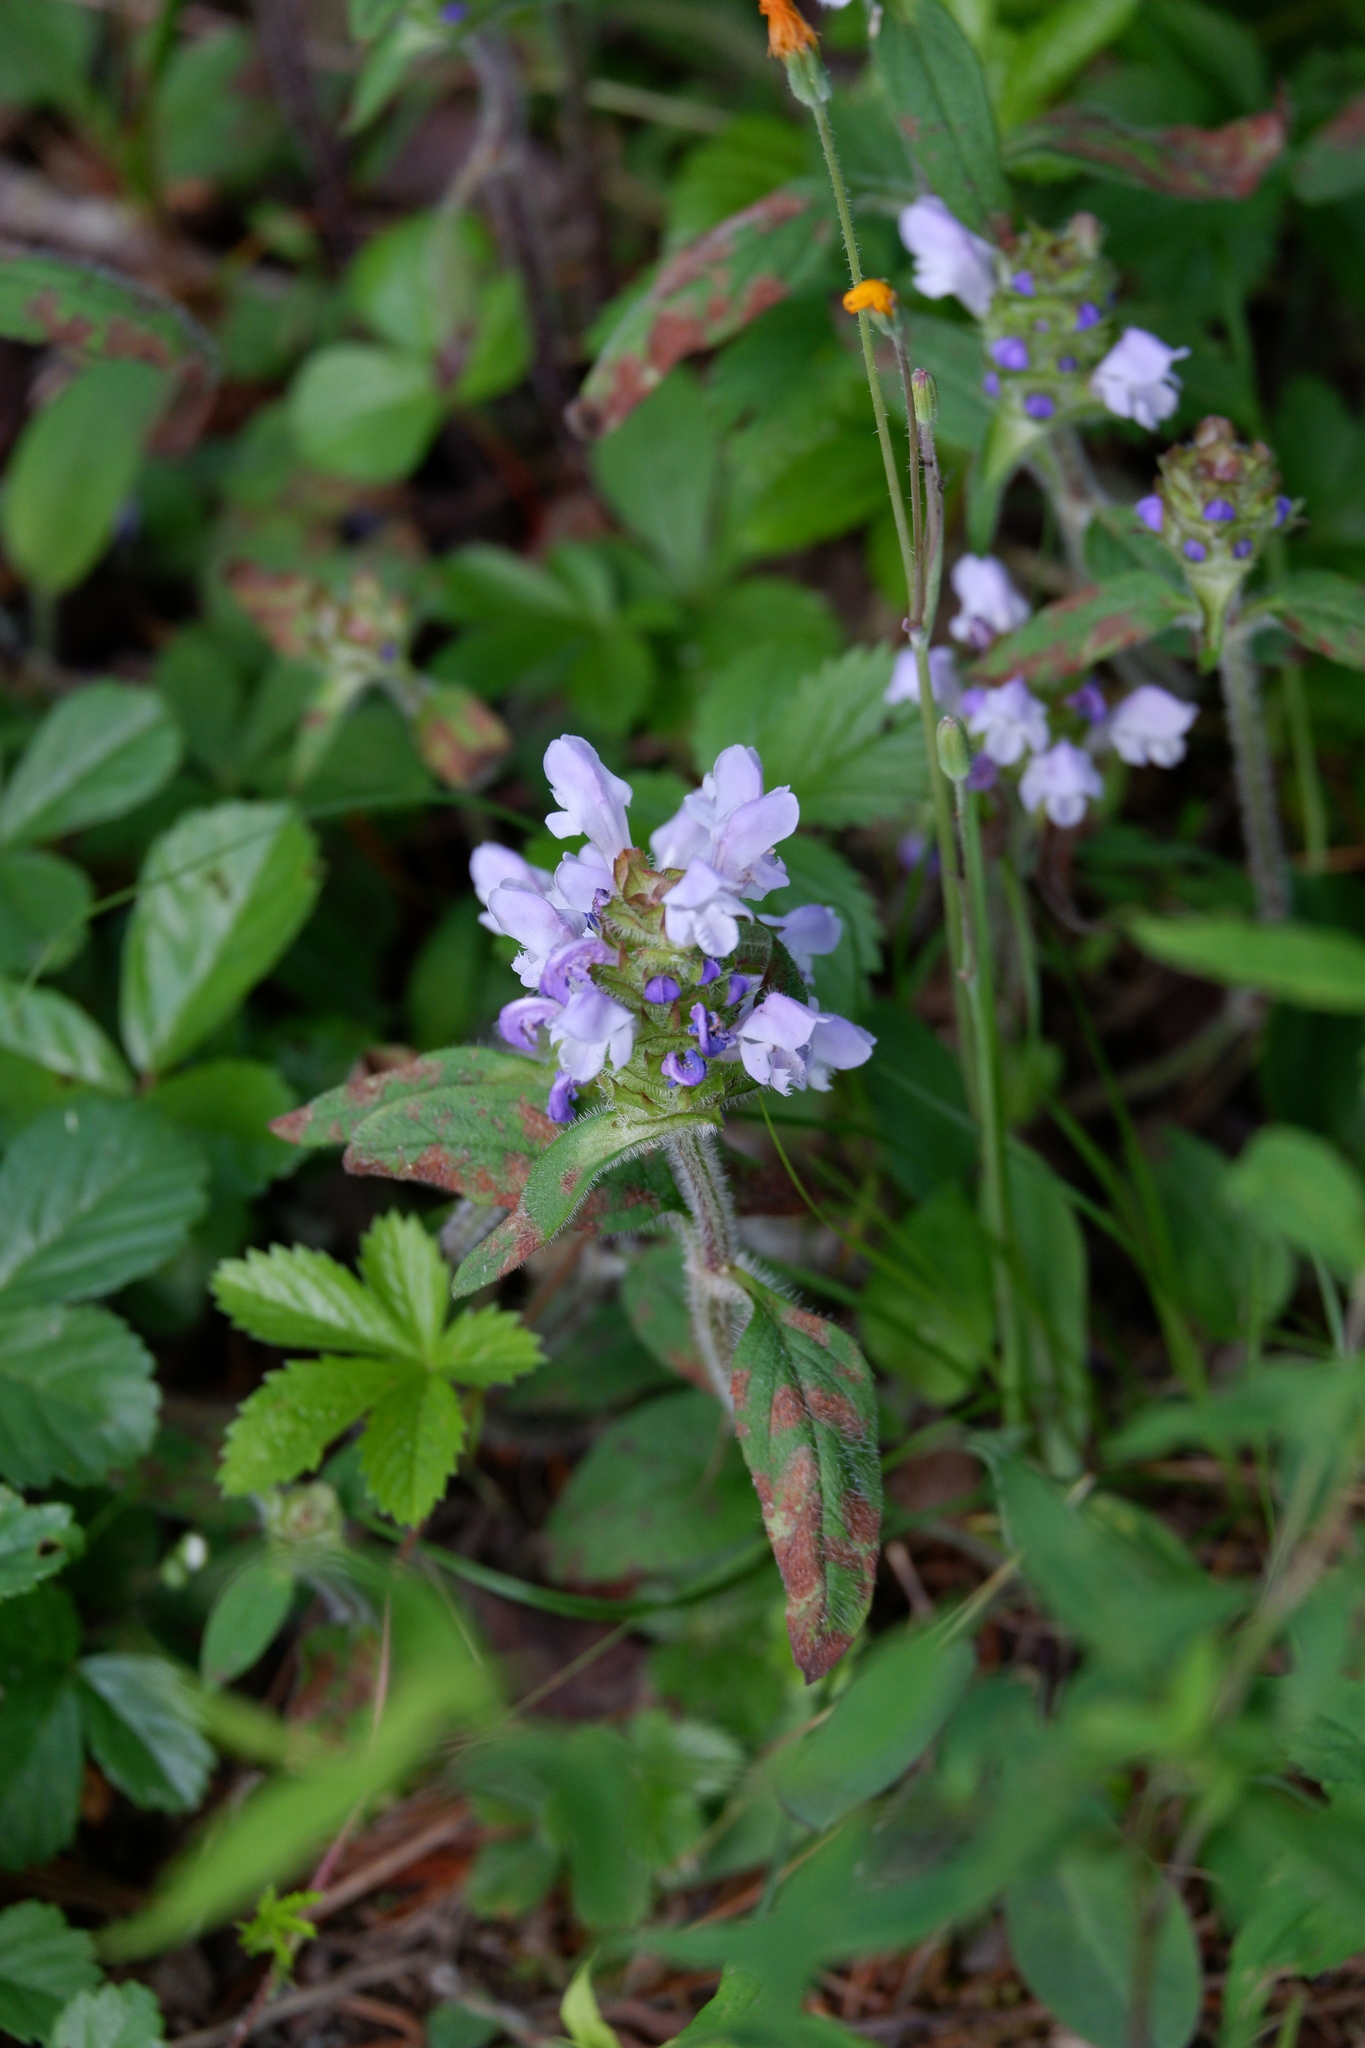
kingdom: Plantae
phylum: Tracheophyta
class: Magnoliopsida
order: Lamiales
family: Lamiaceae
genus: Prunella
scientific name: Prunella vulgaris
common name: Heal-all
